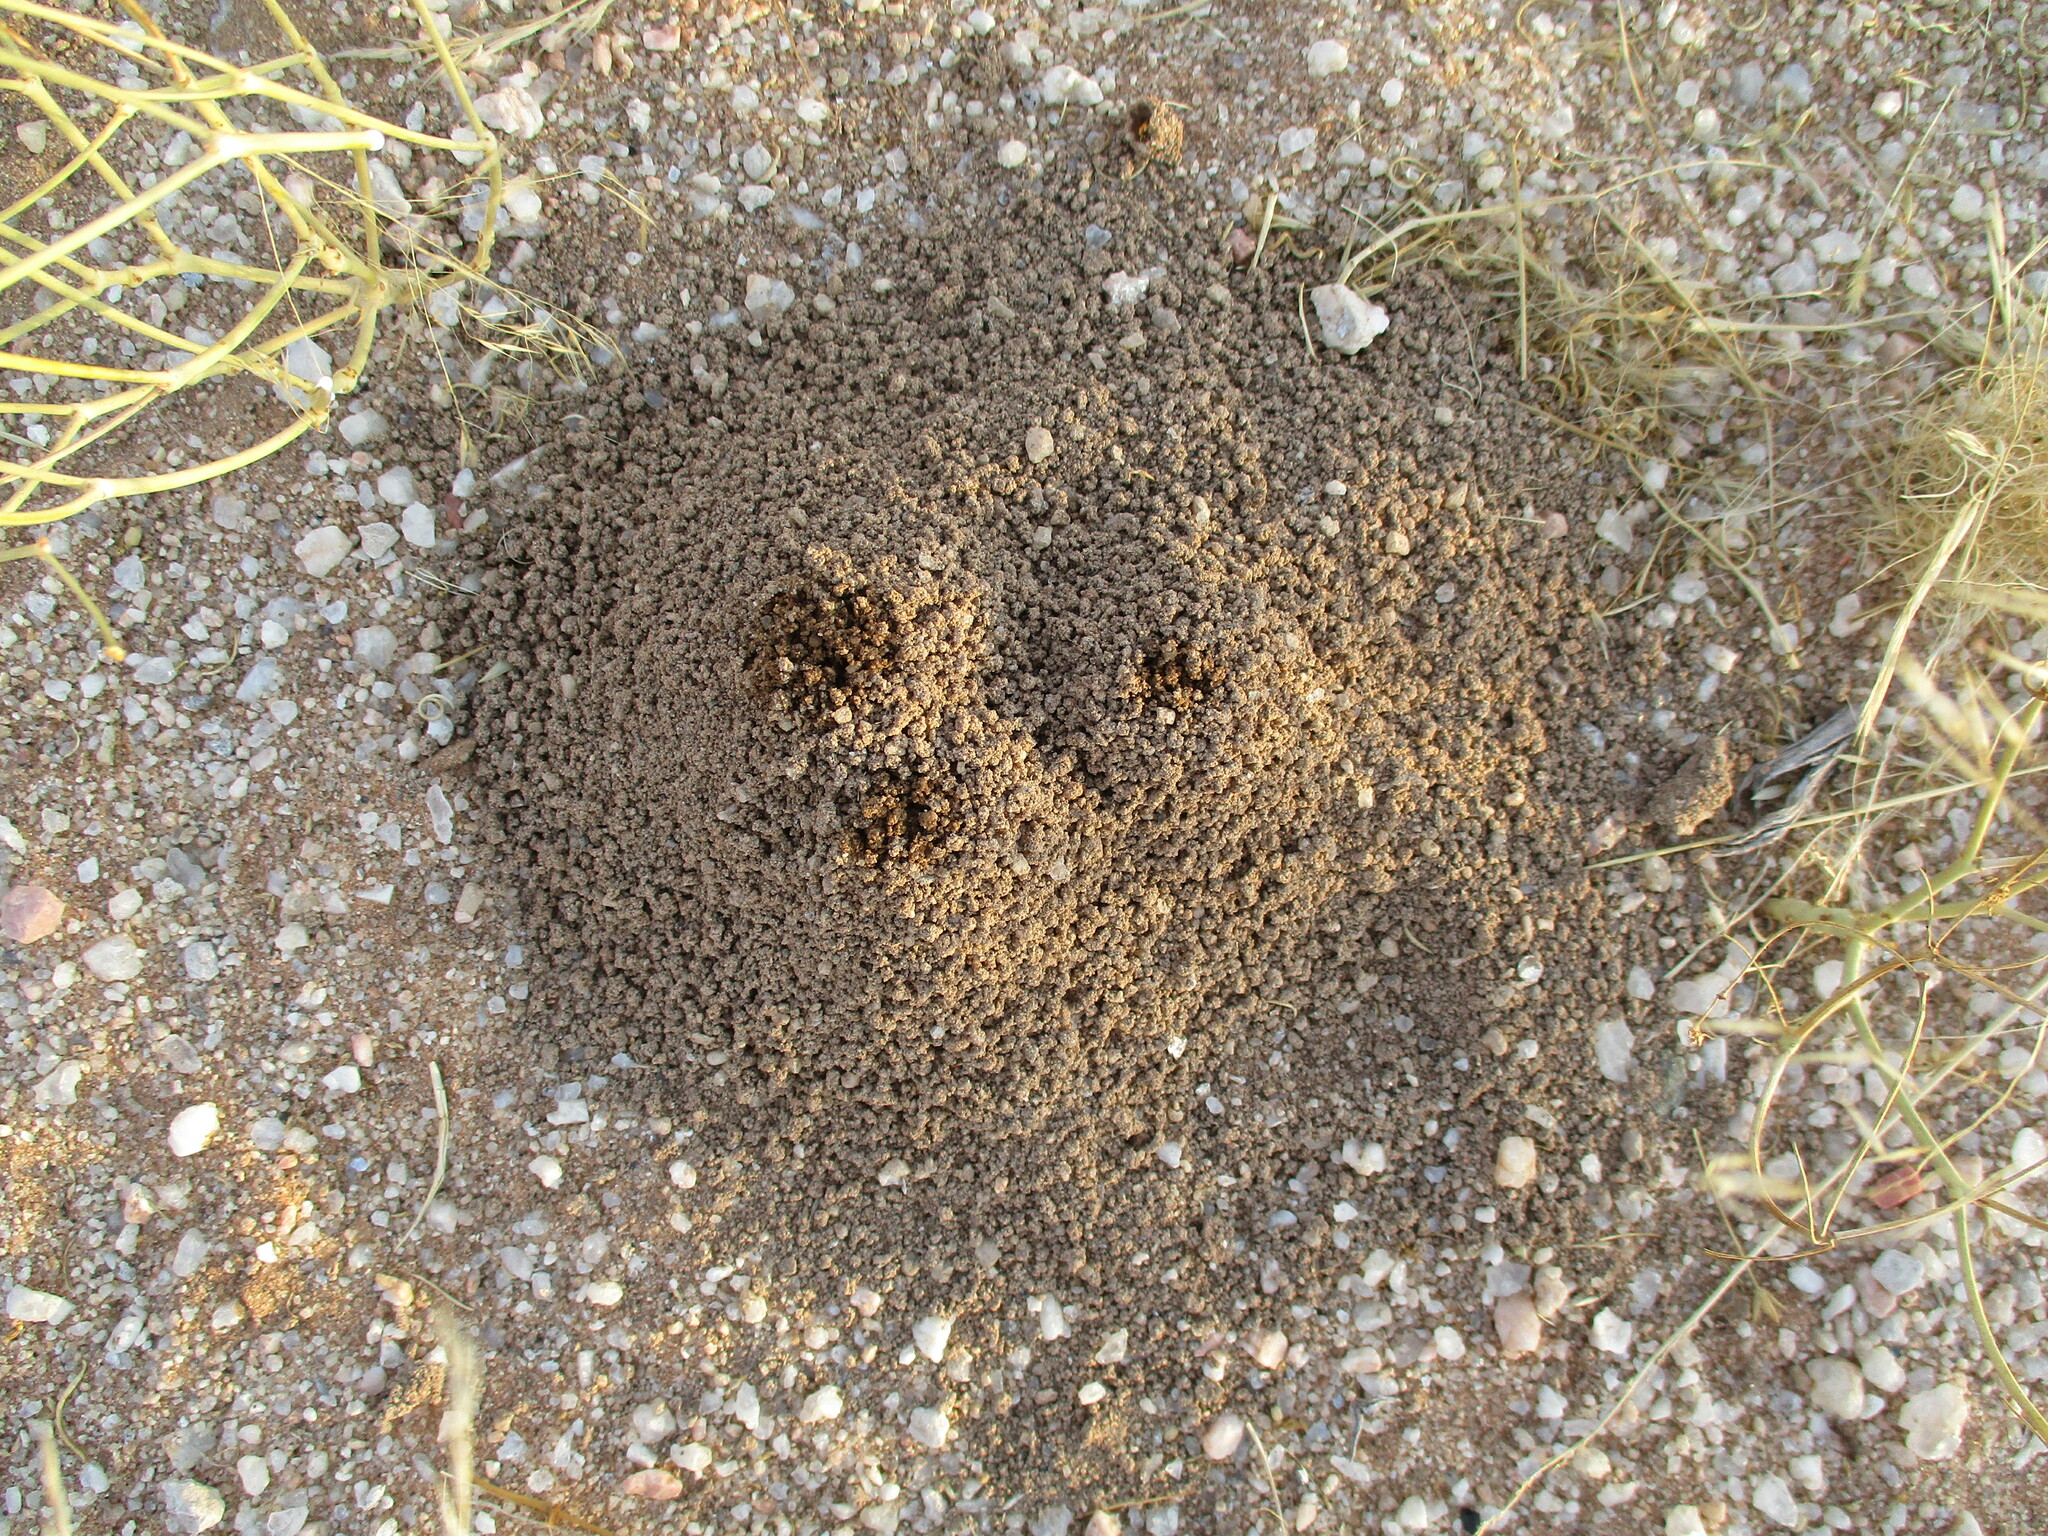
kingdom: Animalia
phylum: Arthropoda
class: Insecta
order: Blattodea
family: Hodotermitidae
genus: Hodotermes
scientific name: Hodotermes mossambicus
